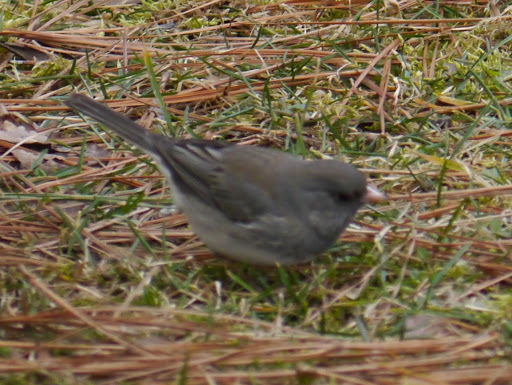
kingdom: Animalia
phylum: Chordata
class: Aves
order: Passeriformes
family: Passerellidae
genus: Junco
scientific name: Junco hyemalis
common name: Dark-eyed junco
